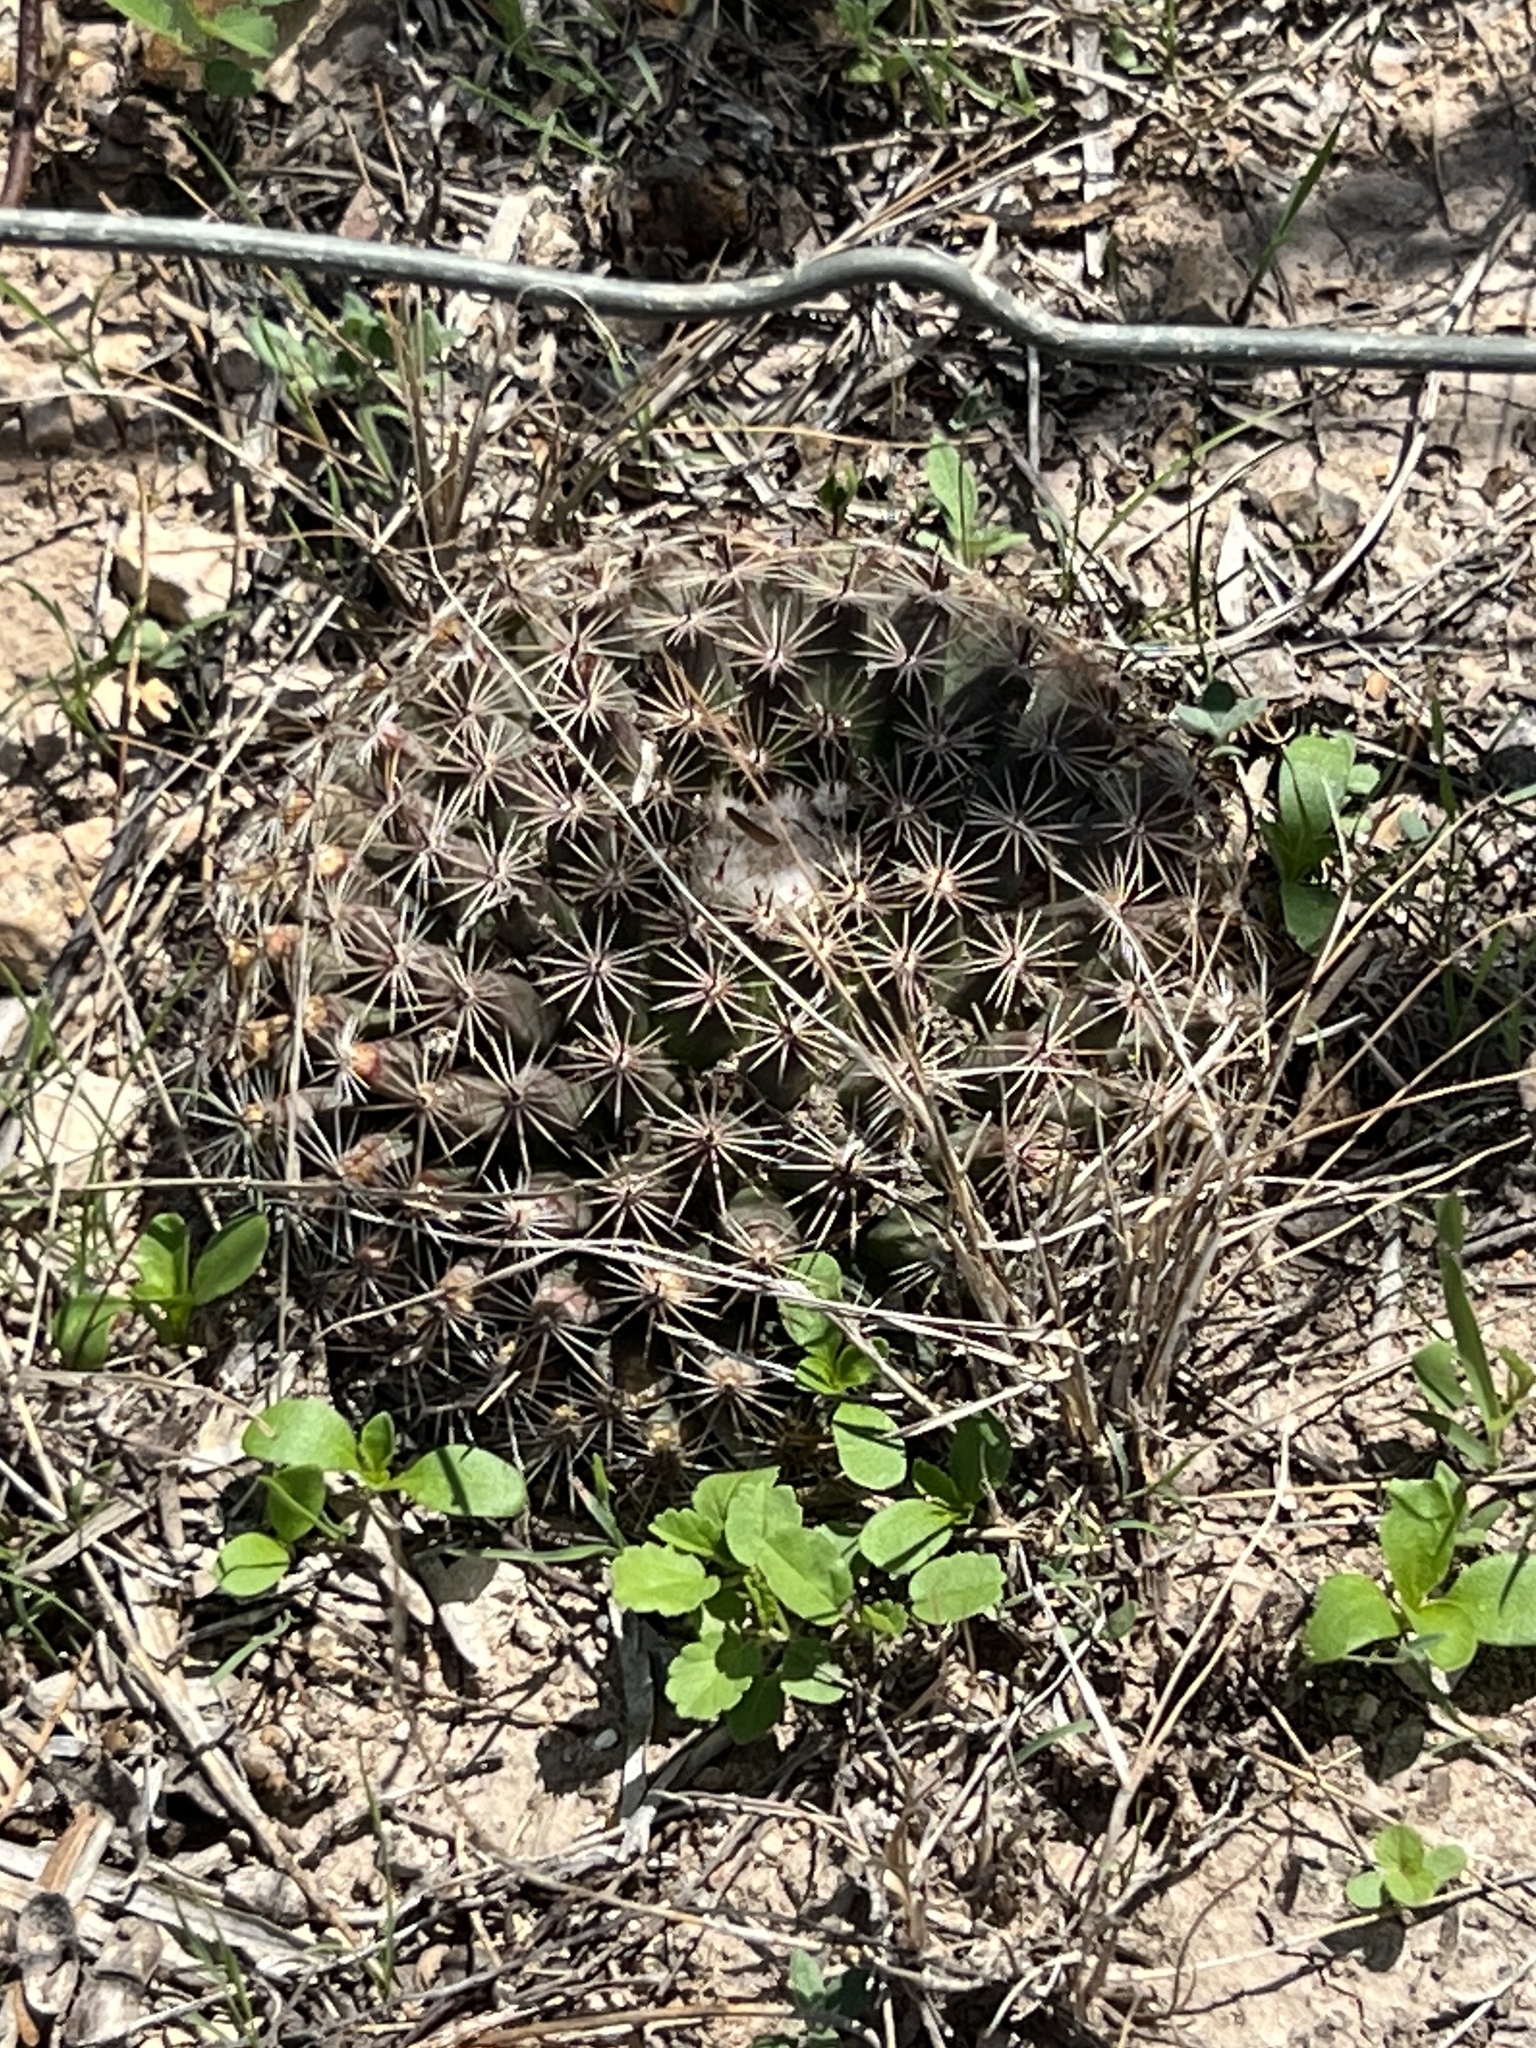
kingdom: Plantae
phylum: Tracheophyta
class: Magnoliopsida
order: Caryophyllales
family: Cactaceae
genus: Mammillaria
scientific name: Mammillaria heyderi
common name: Little nipple cactus
